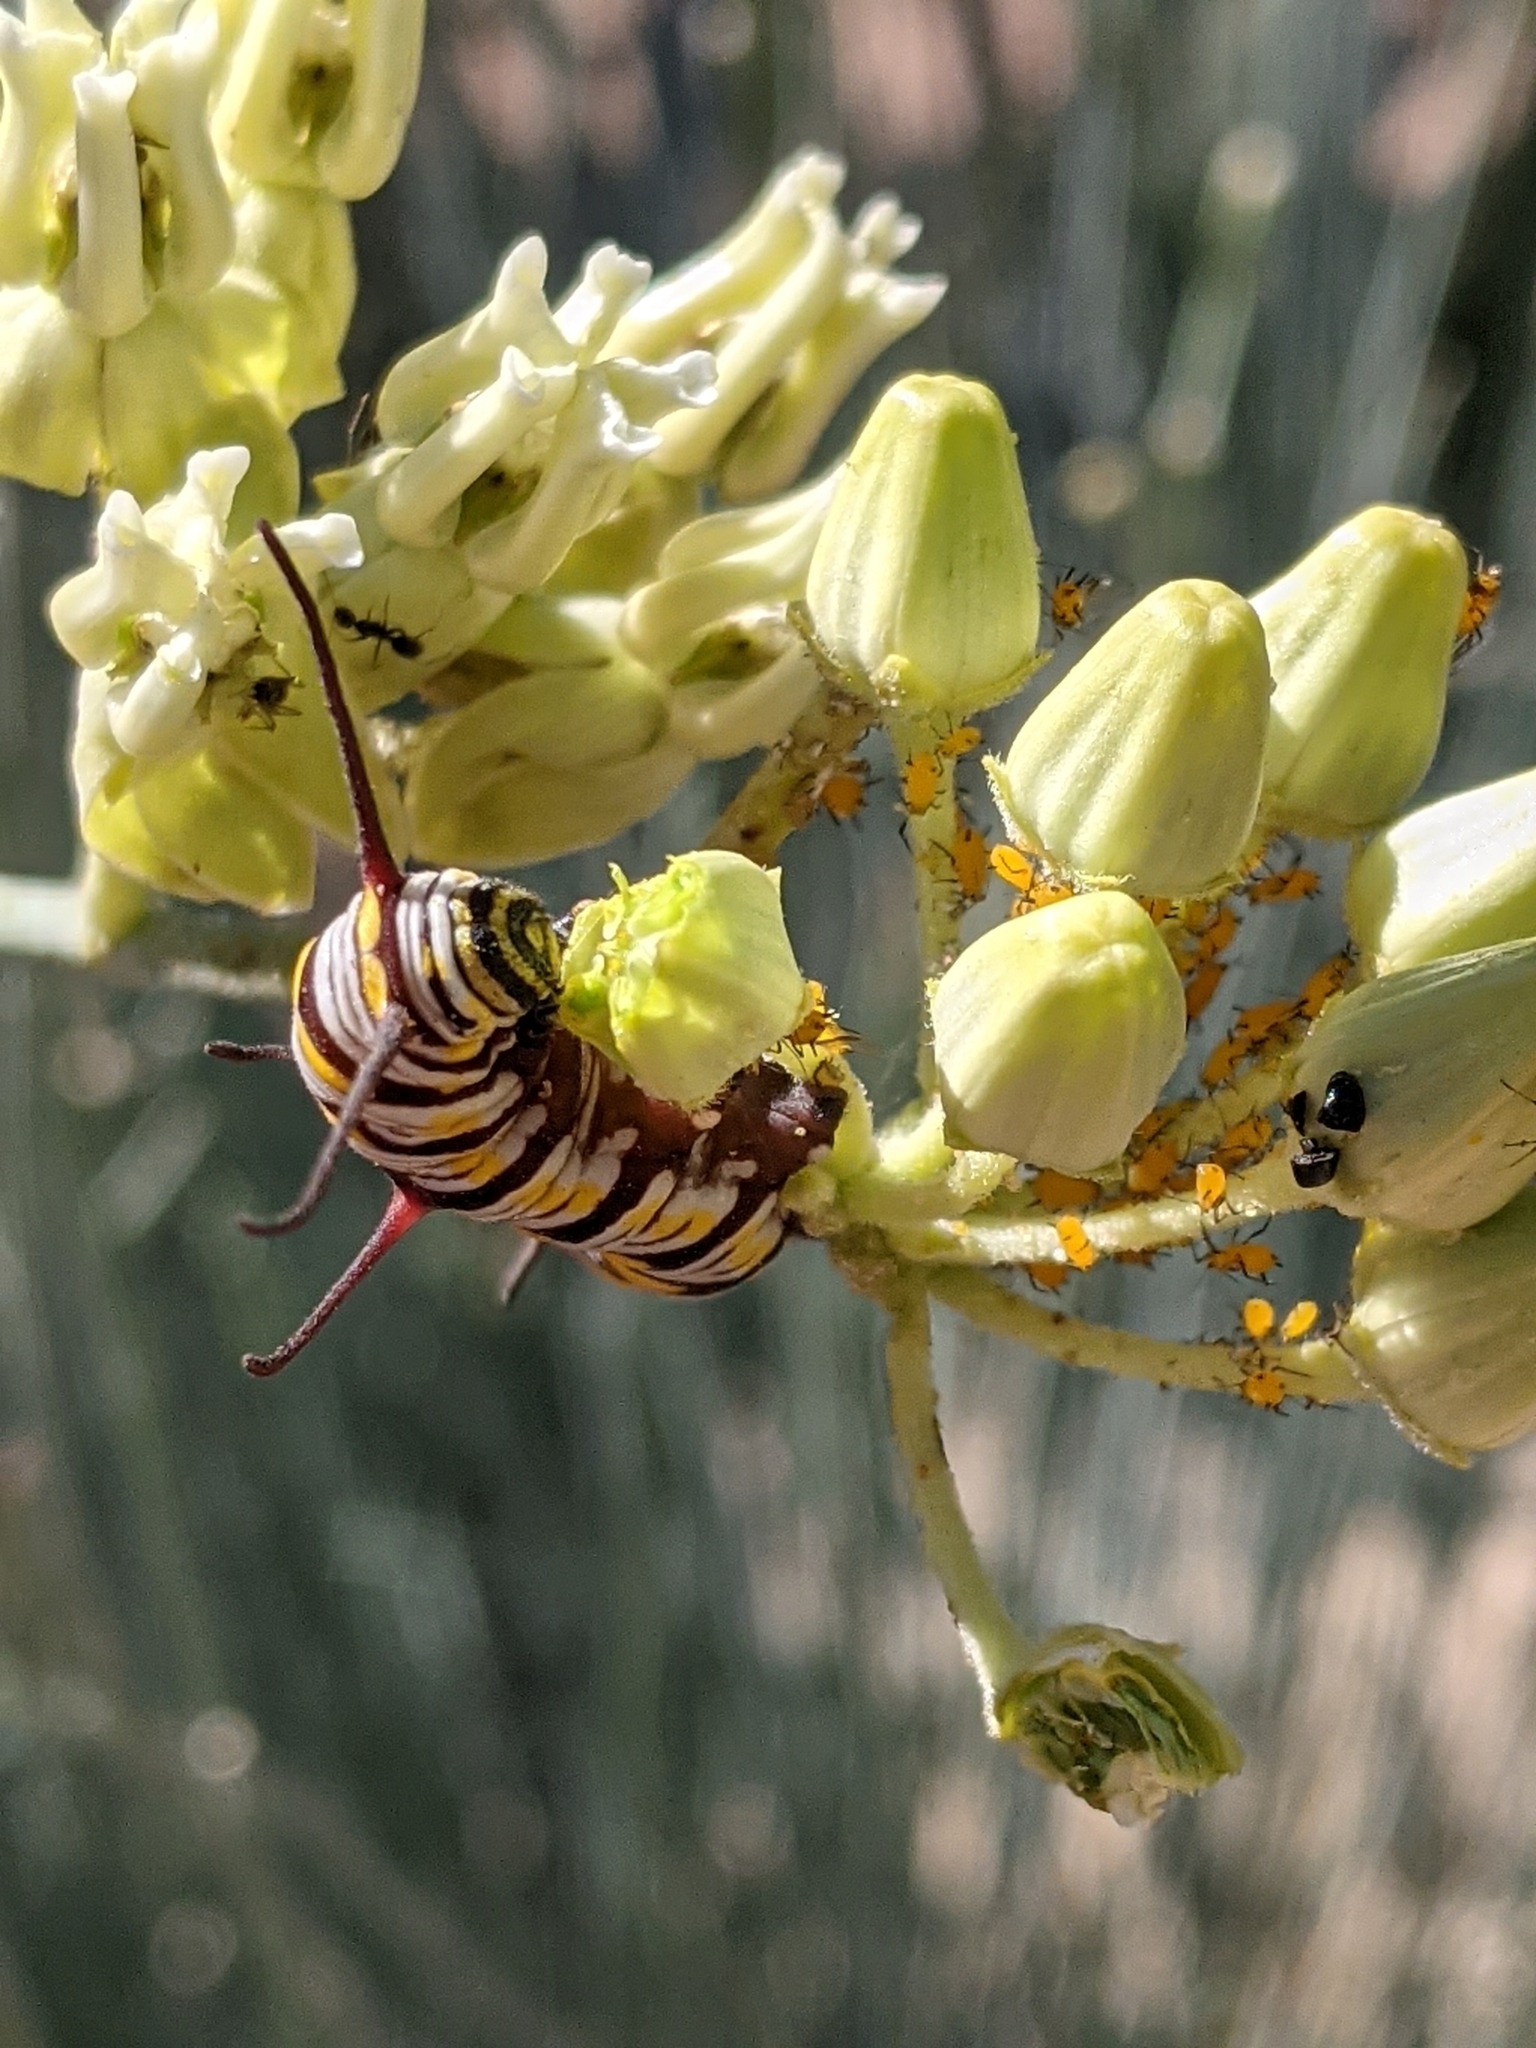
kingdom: Animalia
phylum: Arthropoda
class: Insecta
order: Lepidoptera
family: Nymphalidae
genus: Danaus
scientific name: Danaus gilippus
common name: Queen
